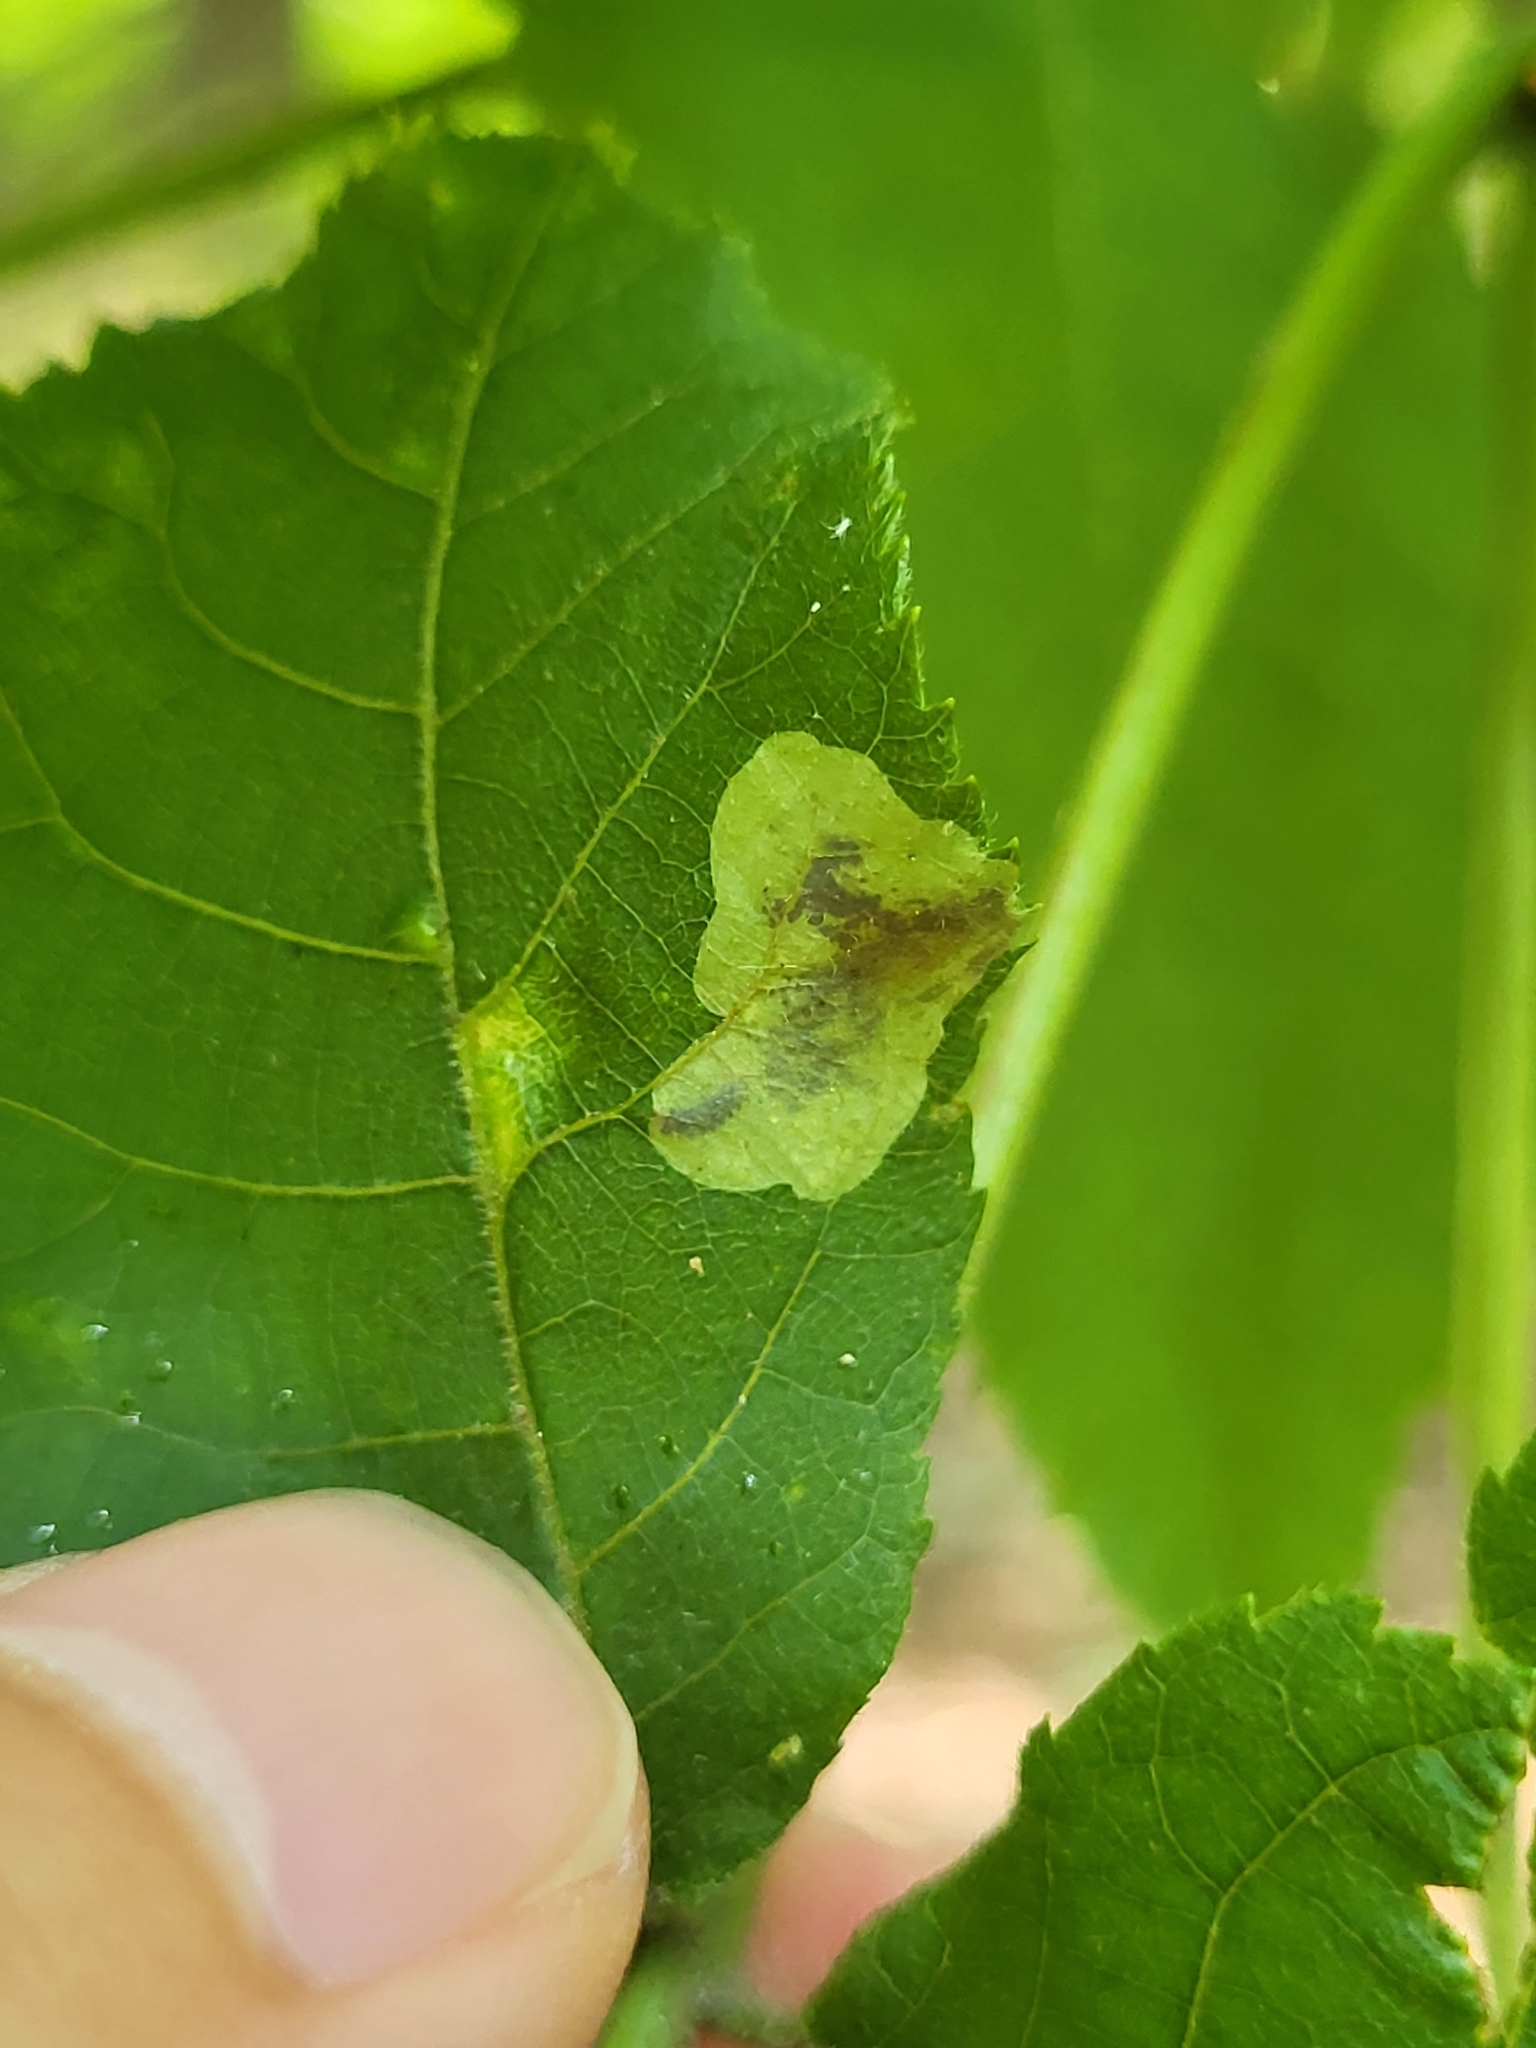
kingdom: Animalia
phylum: Arthropoda
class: Insecta
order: Lepidoptera
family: Gracillariidae
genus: Cameraria
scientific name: Cameraria caryaefoliella
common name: Pecan leafminer moth
